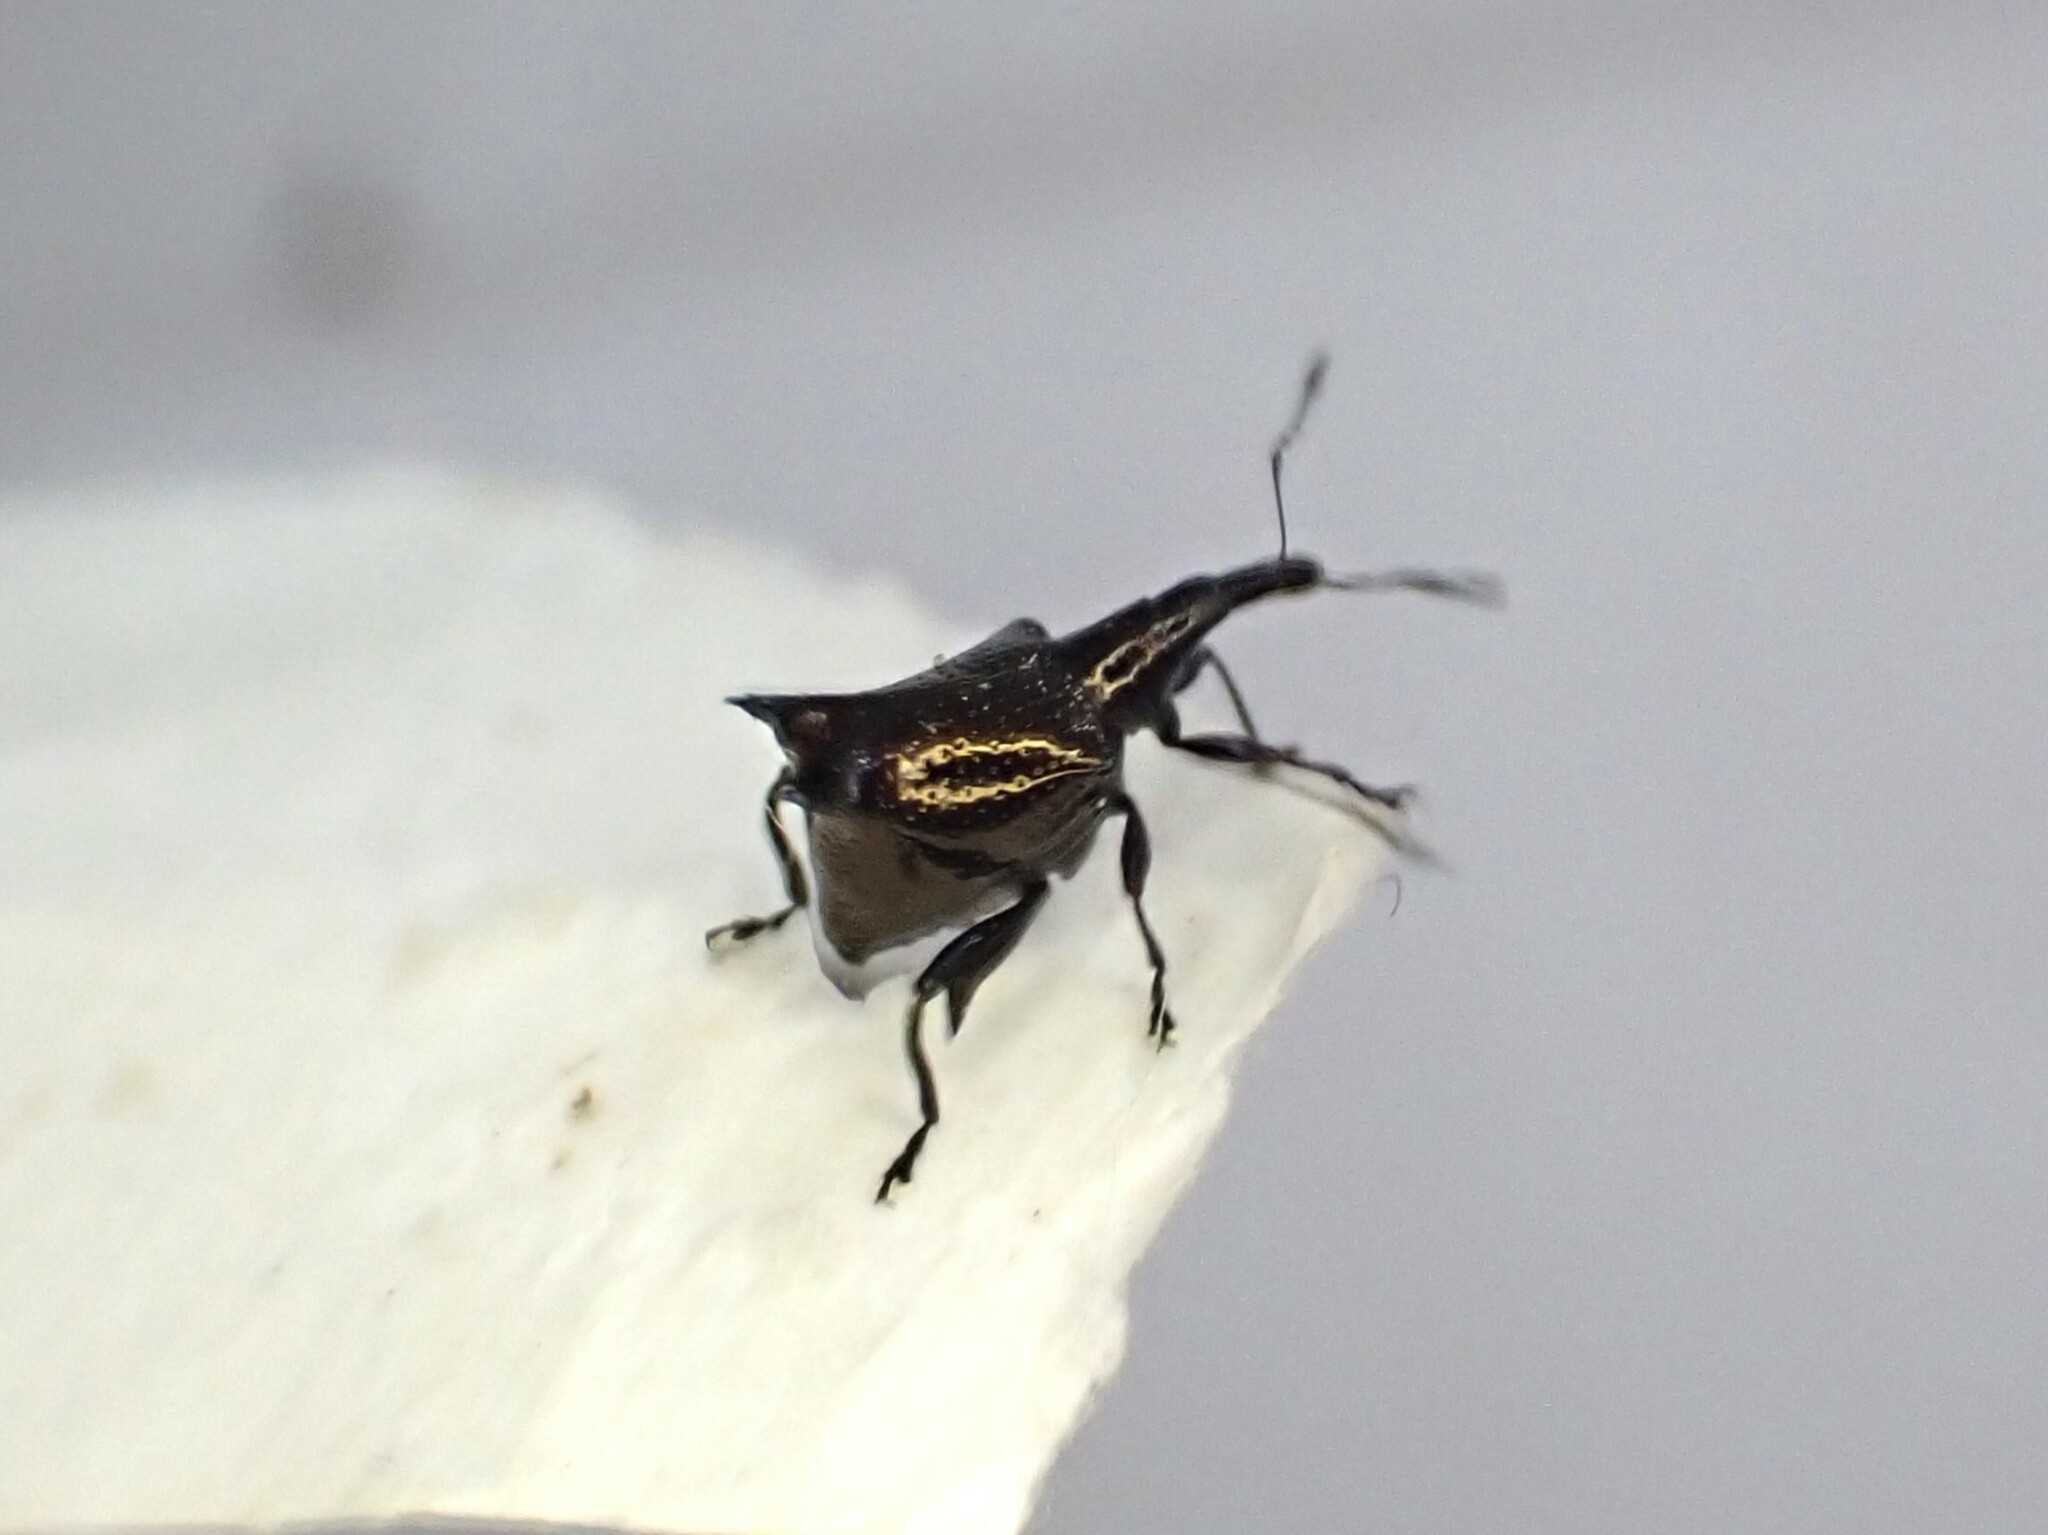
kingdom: Animalia
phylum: Arthropoda
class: Insecta
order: Coleoptera
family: Curculionidae
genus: Scolopterus
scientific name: Scolopterus penicillatus
